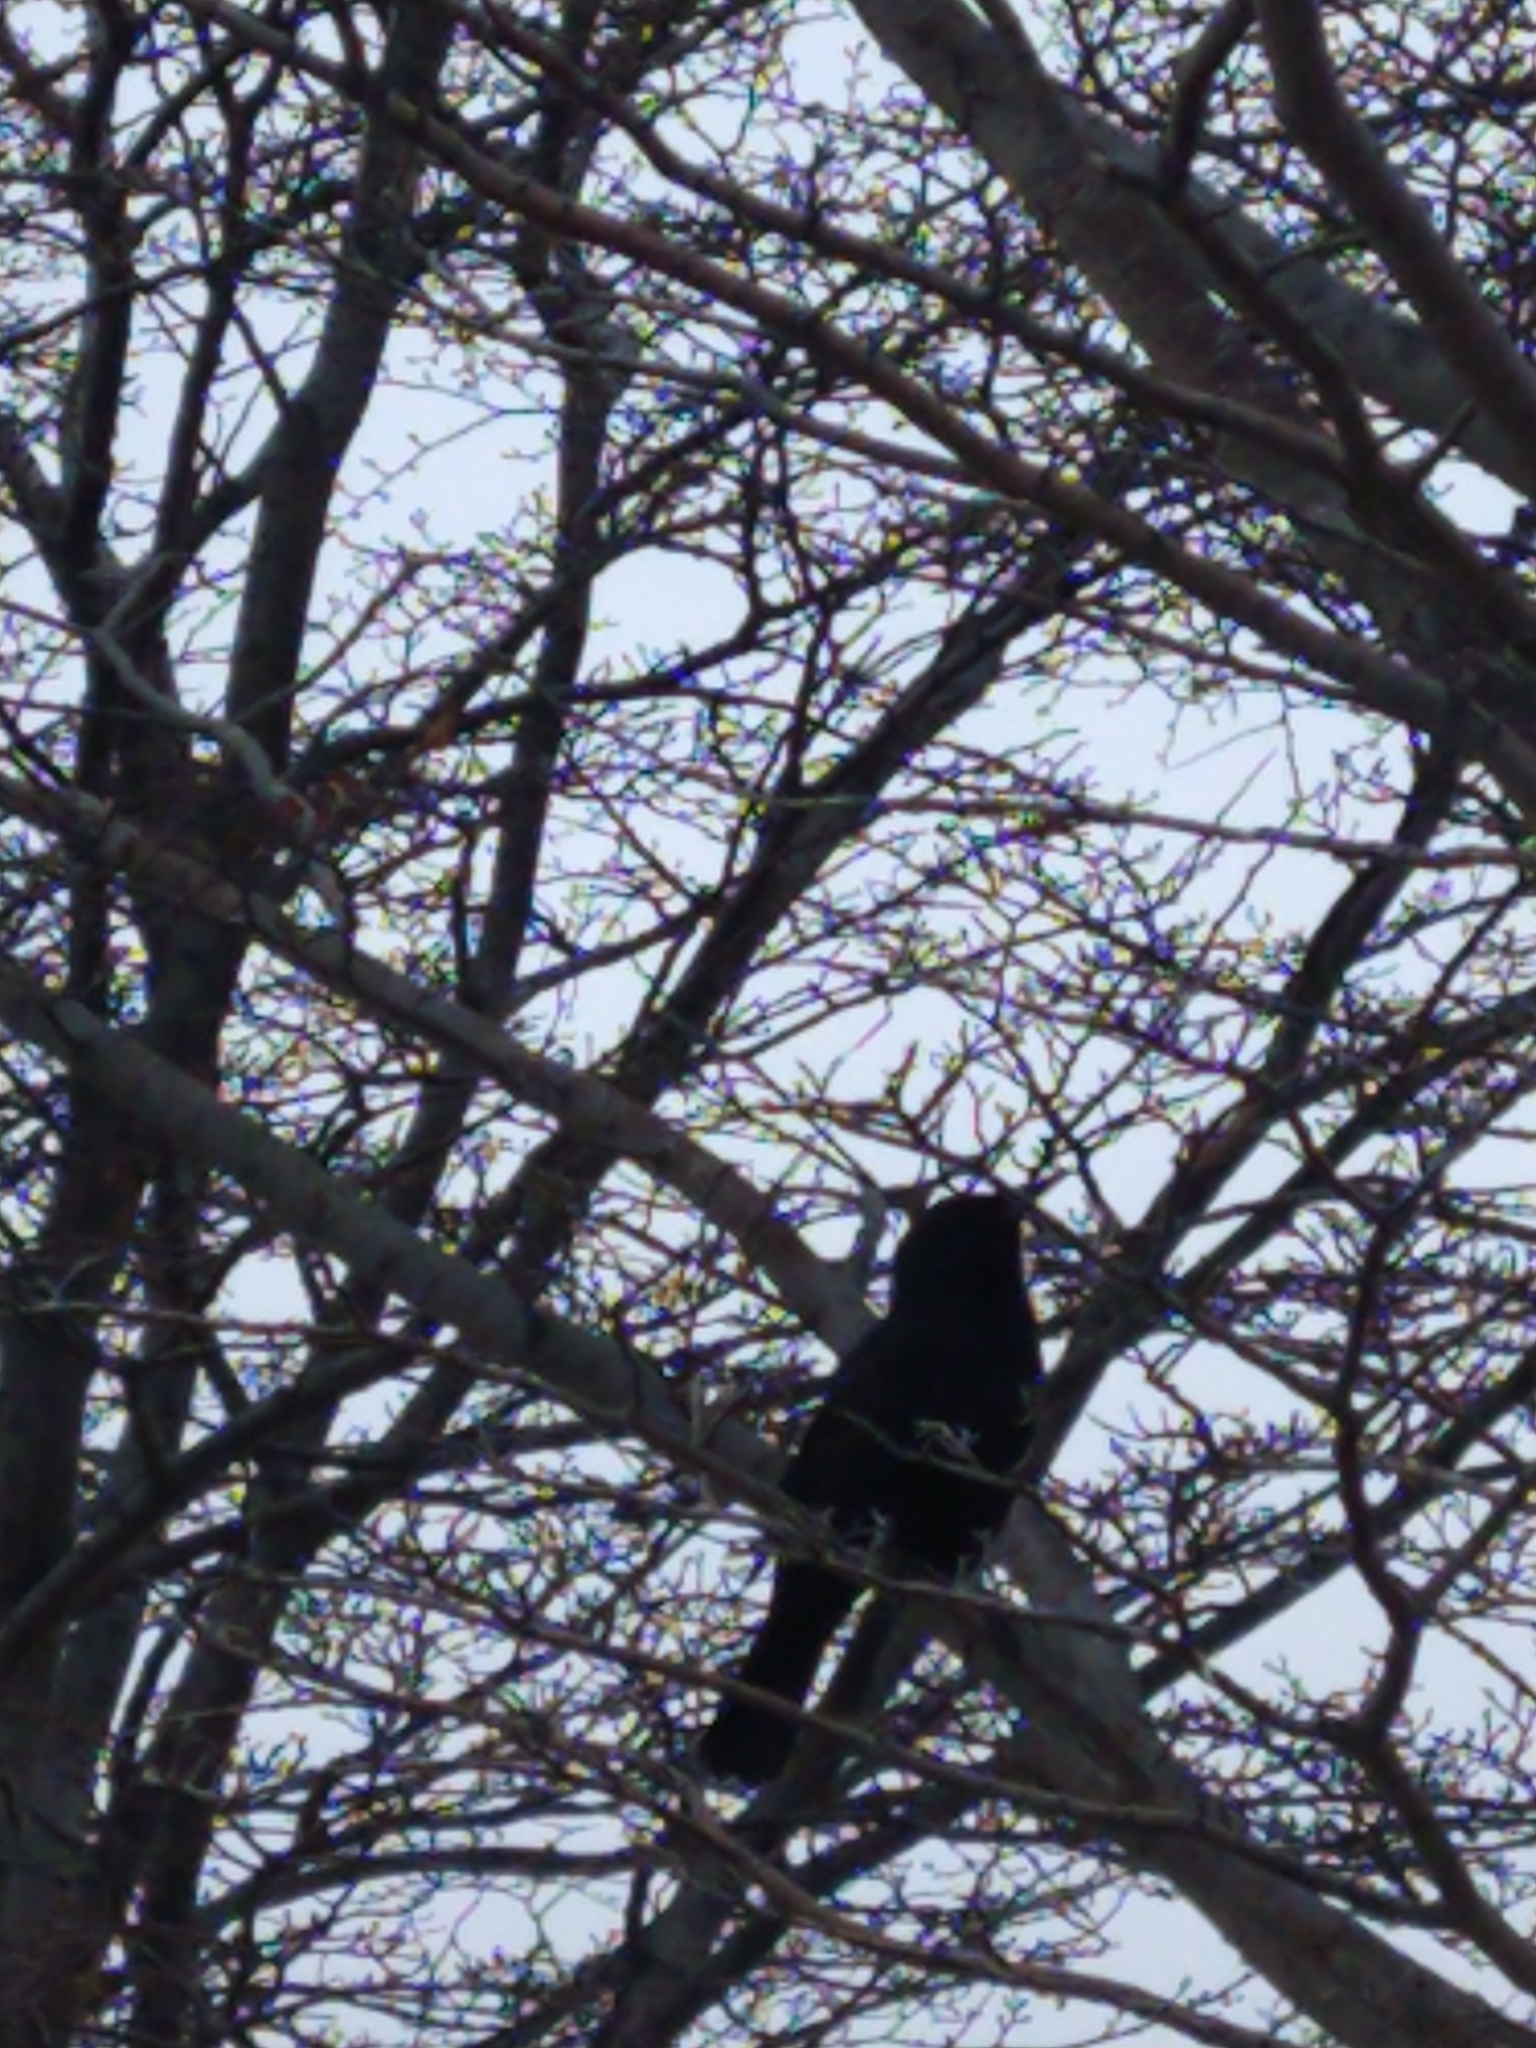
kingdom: Animalia
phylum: Chordata
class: Aves
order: Passeriformes
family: Icteridae
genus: Curaeus
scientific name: Curaeus curaeus
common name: Austral blackbird
